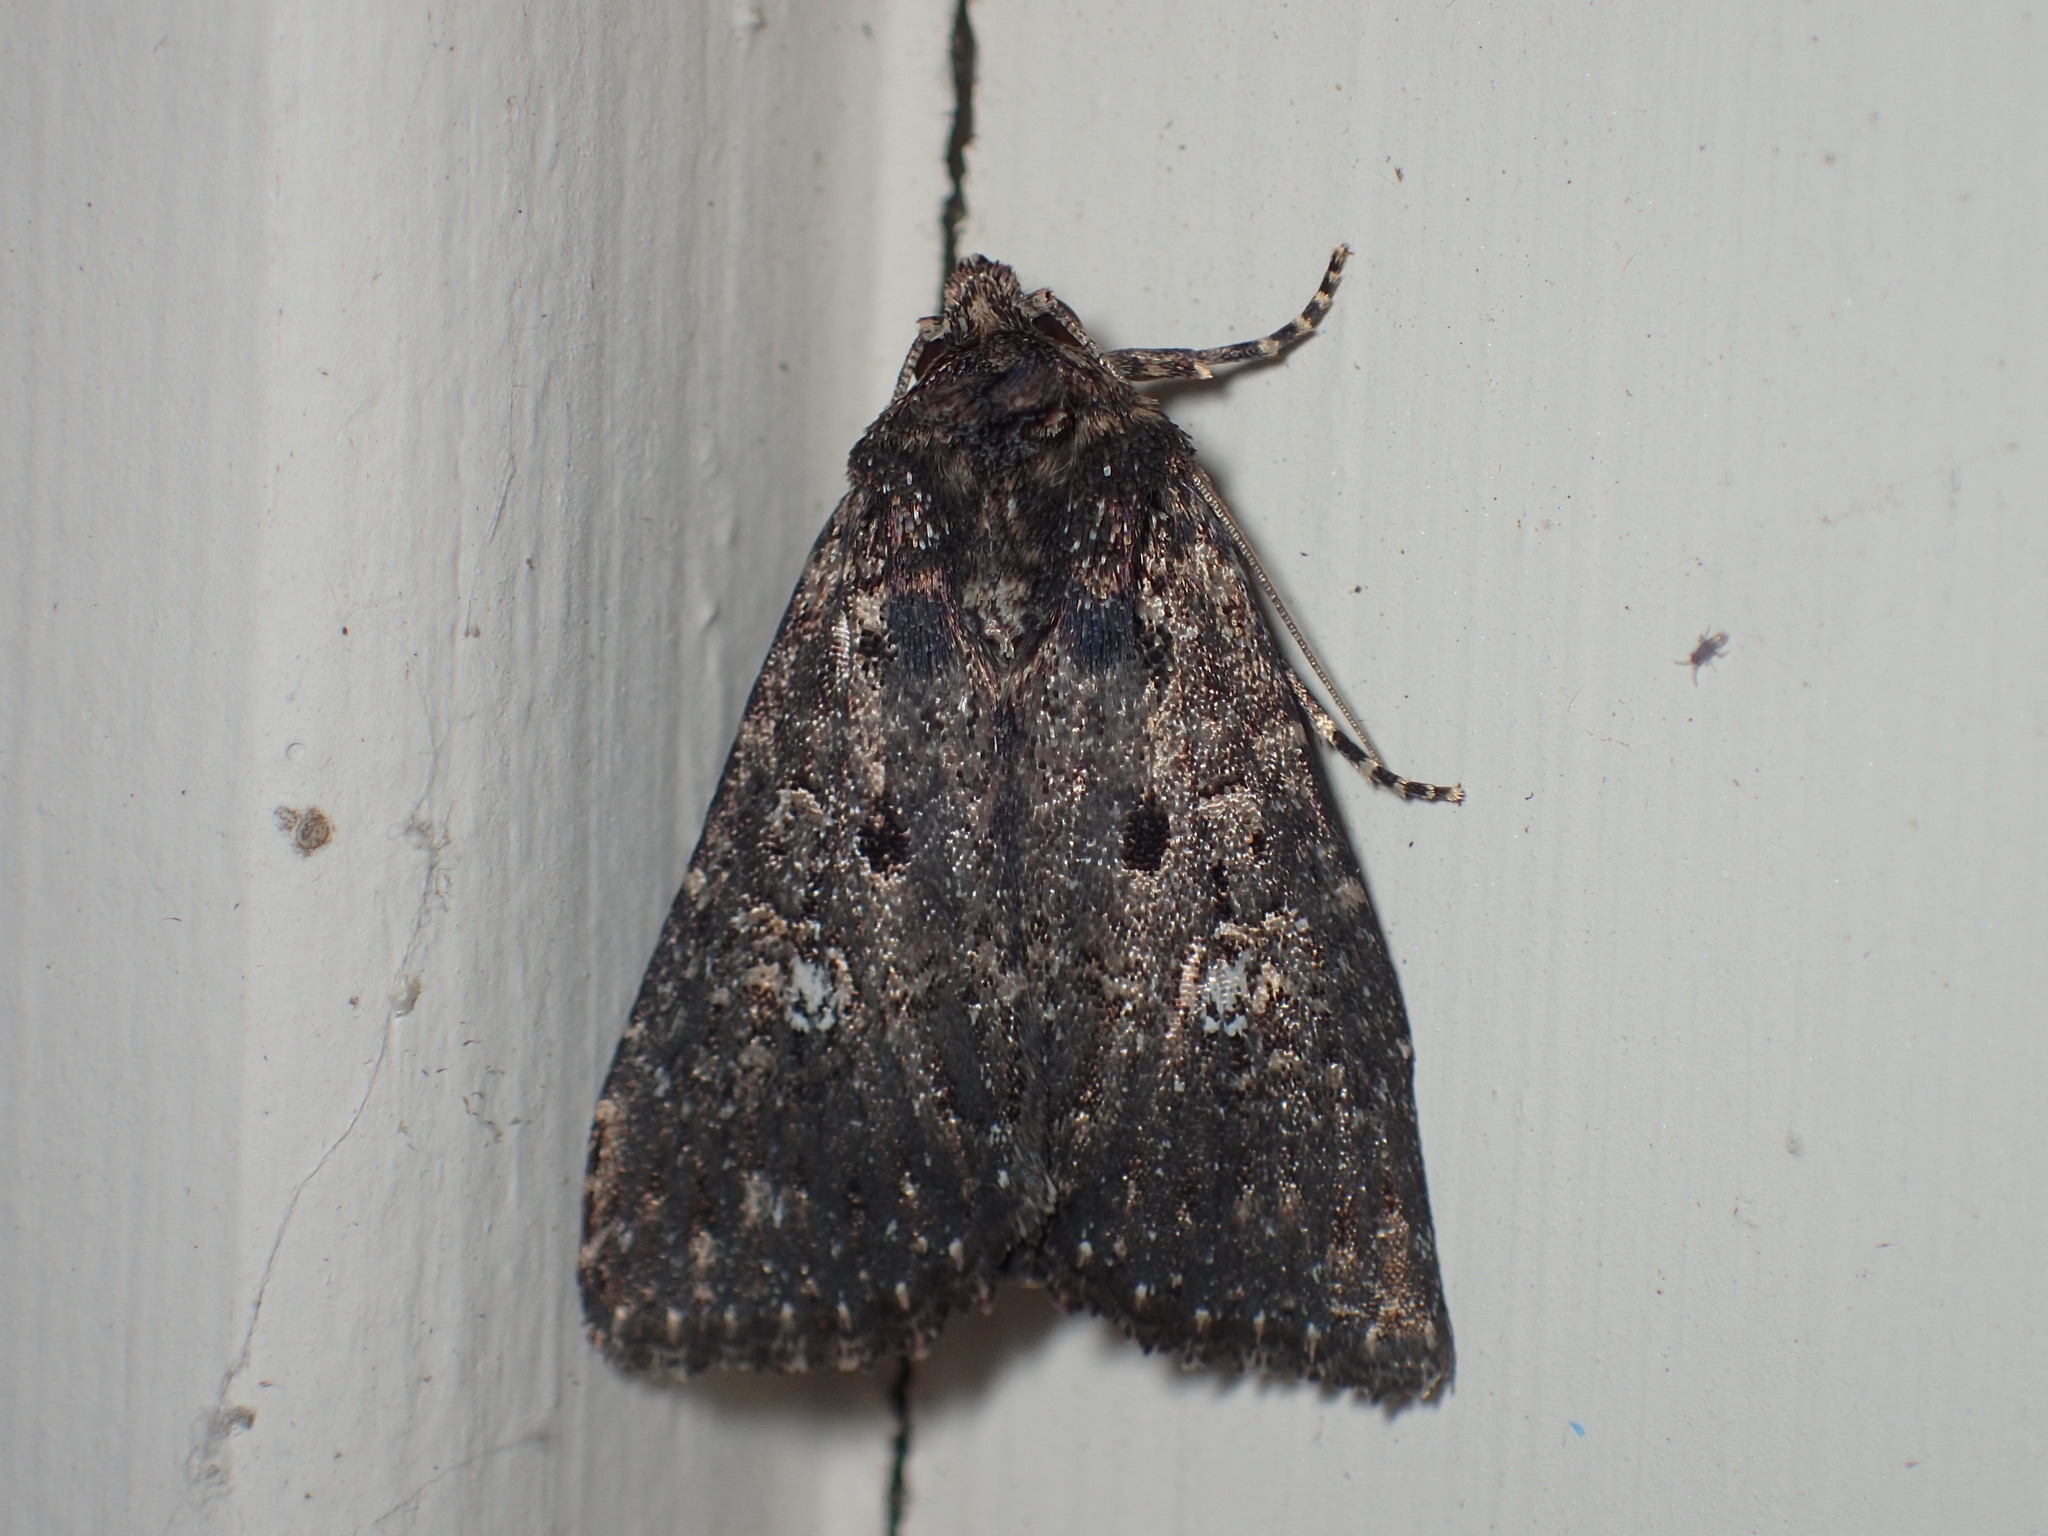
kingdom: Animalia
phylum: Arthropoda
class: Insecta
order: Lepidoptera
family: Noctuidae
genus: Condica
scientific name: Condica vecors
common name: Dusky groundling
